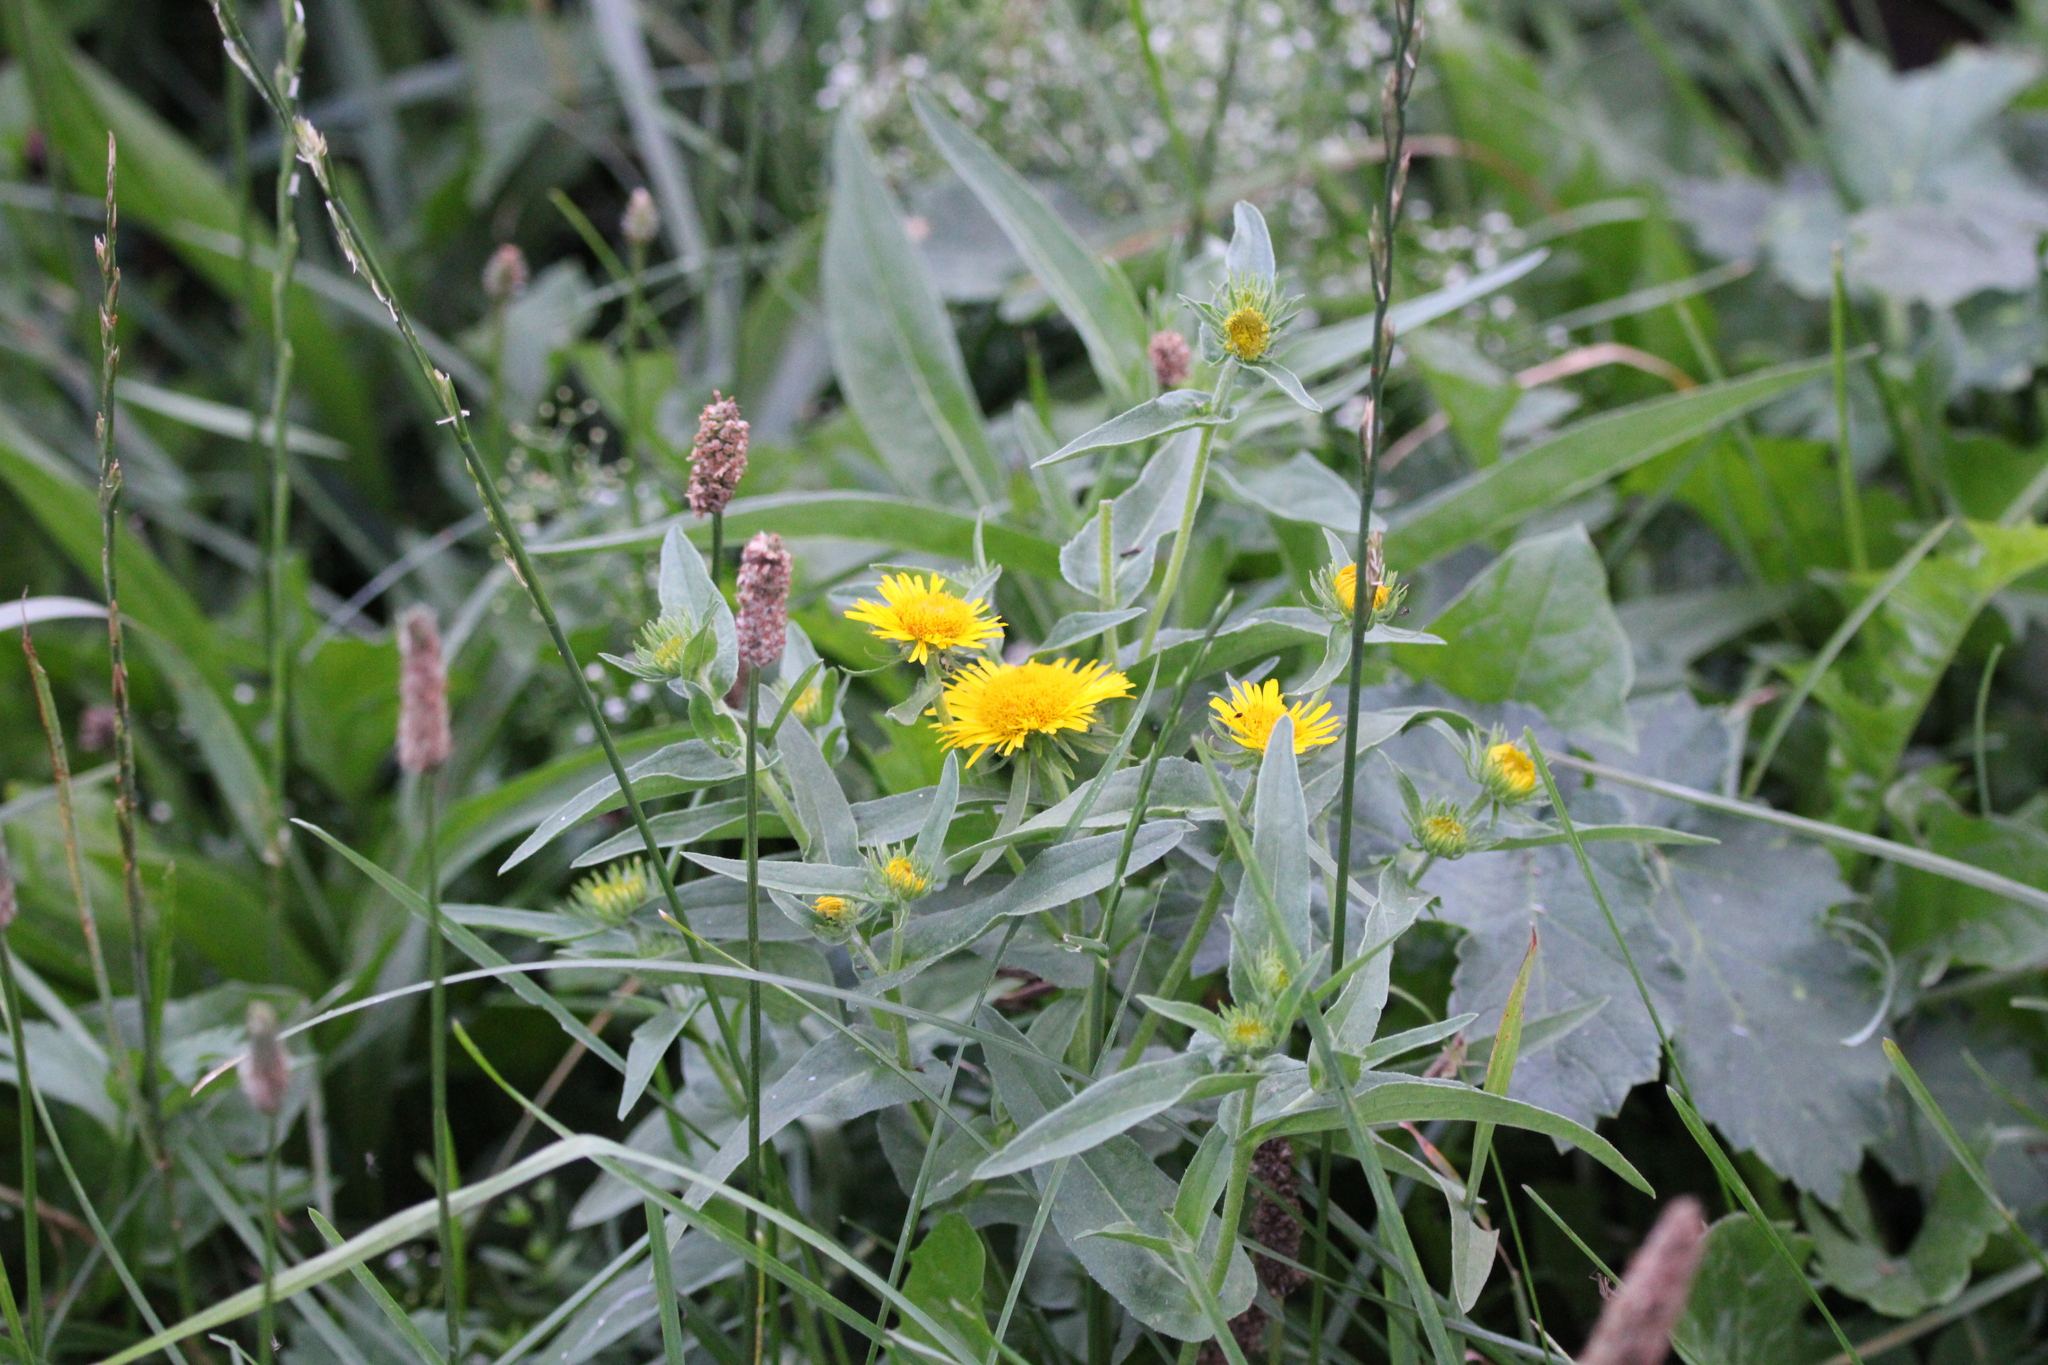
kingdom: Plantae
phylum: Tracheophyta
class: Magnoliopsida
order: Asterales
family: Asteraceae
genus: Pentanema
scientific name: Pentanema britannicum
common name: British elecampane
